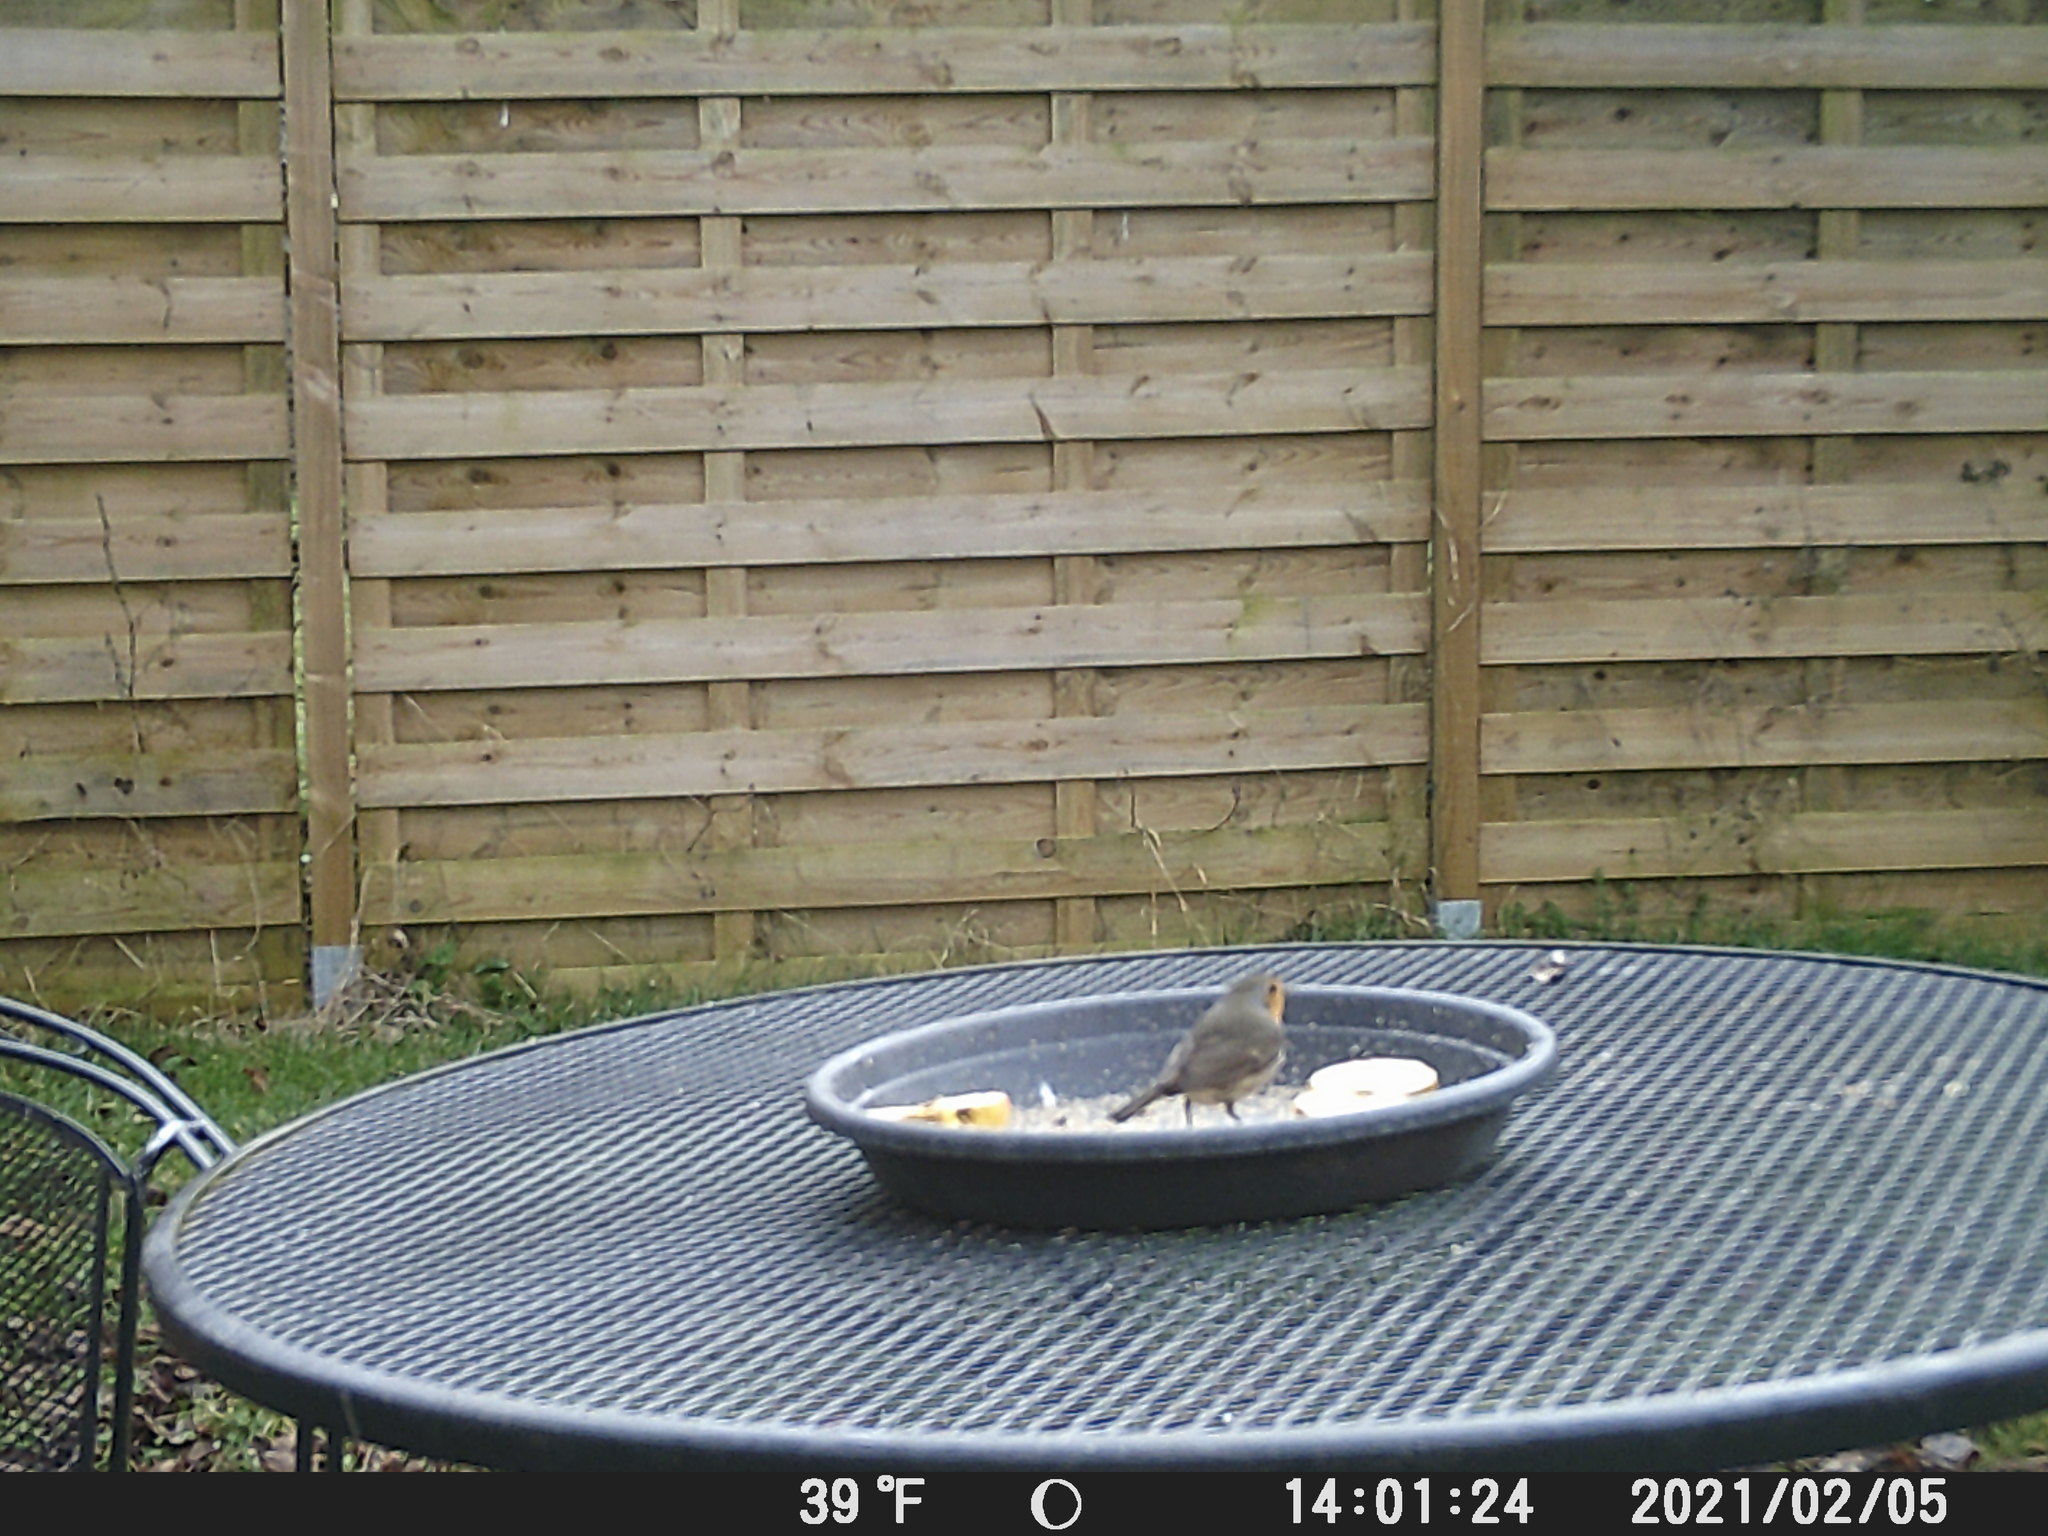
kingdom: Animalia
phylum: Chordata
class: Aves
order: Passeriformes
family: Muscicapidae
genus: Erithacus
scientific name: Erithacus rubecula
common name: European robin
